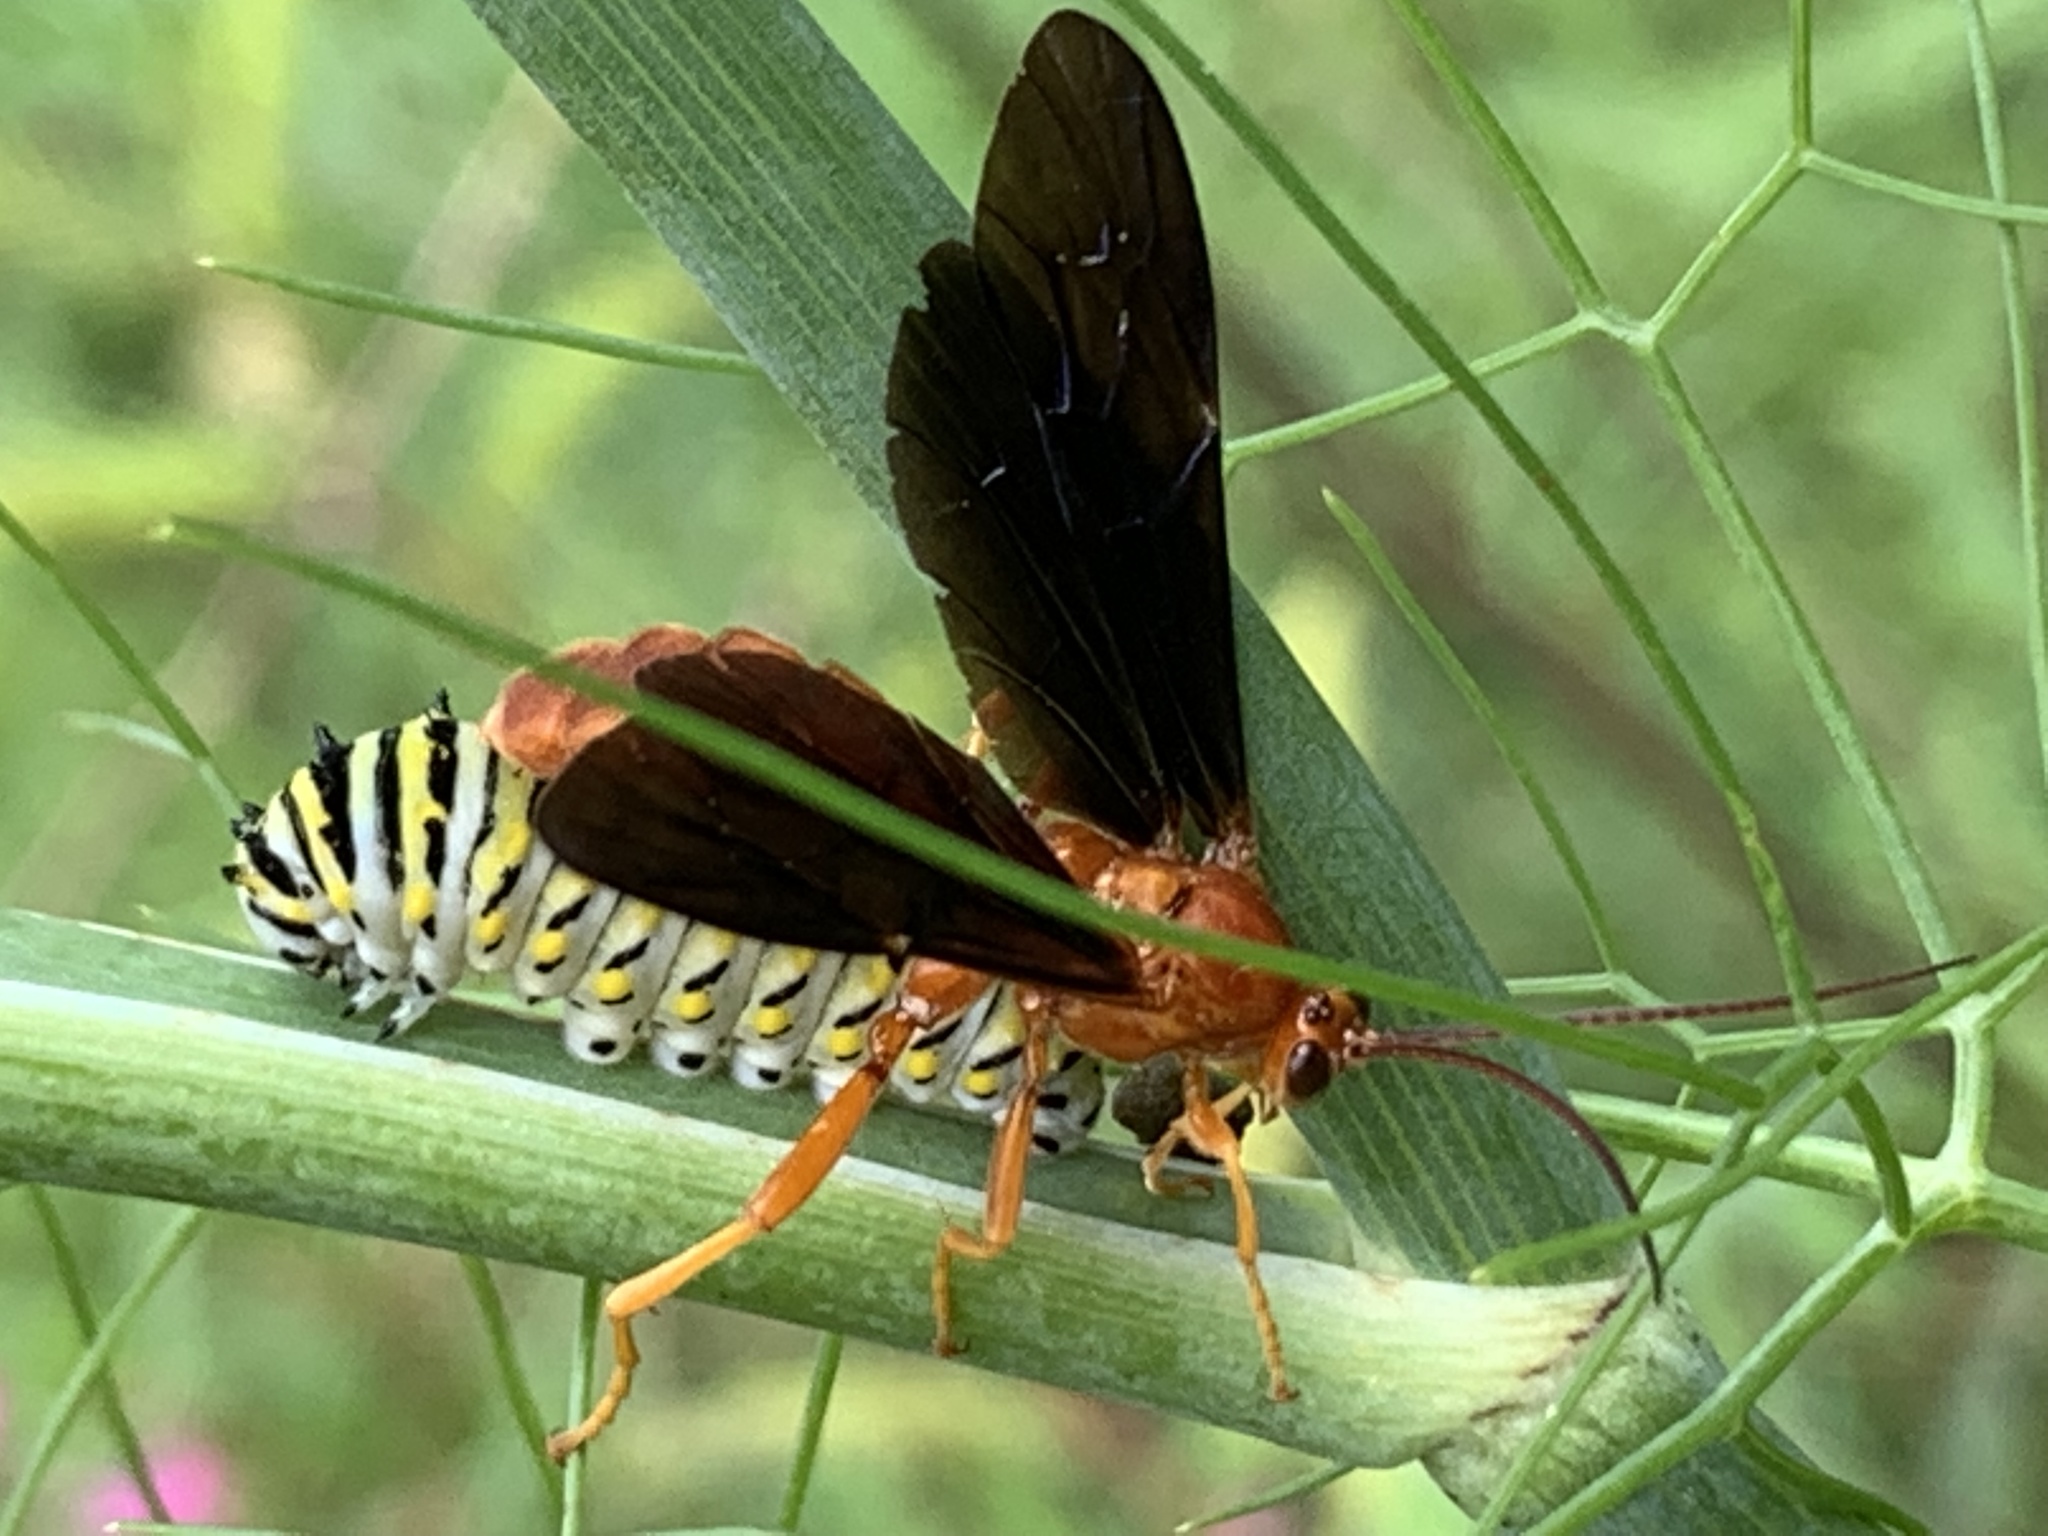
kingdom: Animalia
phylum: Arthropoda
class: Insecta
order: Hymenoptera
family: Ichneumonidae
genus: Trogus
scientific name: Trogus pennator
